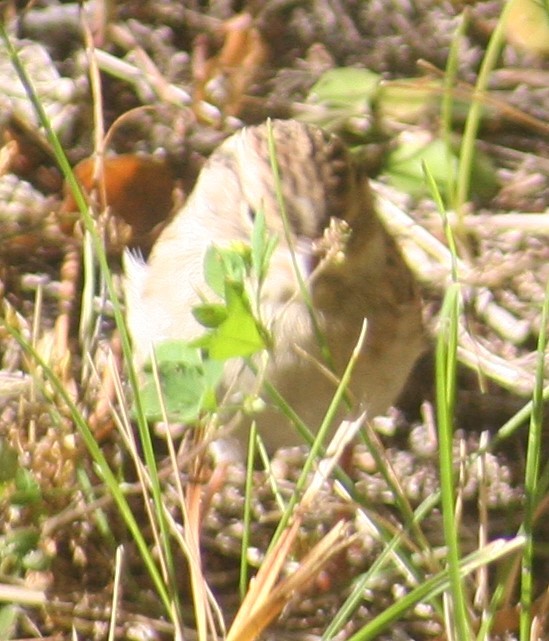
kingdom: Animalia
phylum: Chordata
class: Aves
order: Passeriformes
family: Passerellidae
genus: Spizella
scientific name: Spizella passerina
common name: Chipping sparrow
